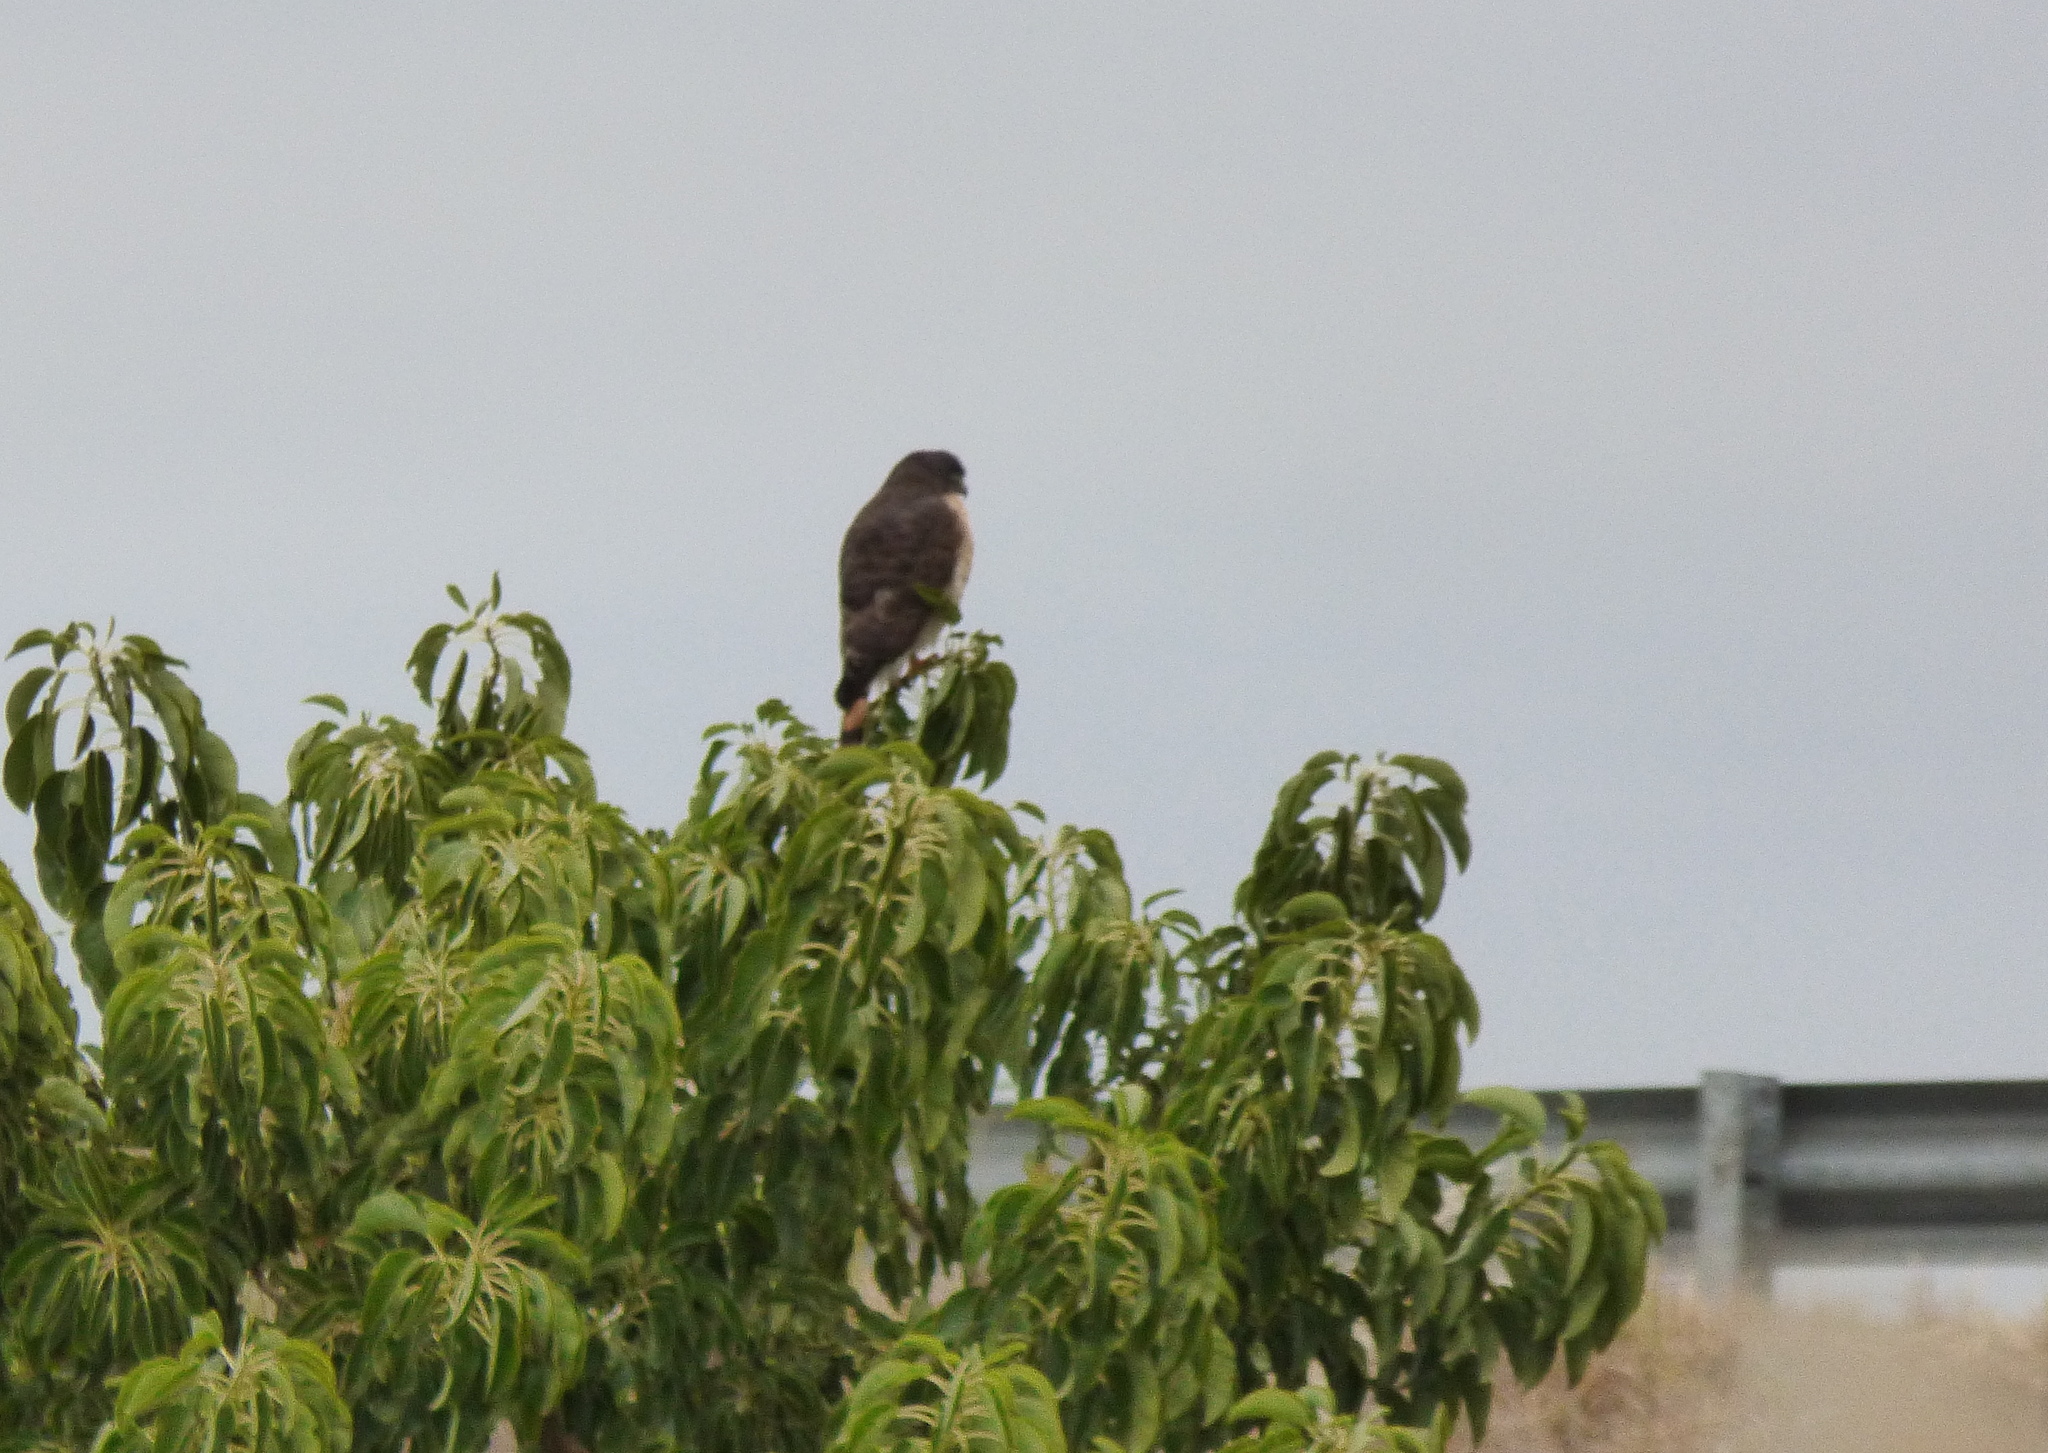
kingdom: Animalia
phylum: Chordata
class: Aves
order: Accipitriformes
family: Accipitridae
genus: Rupornis
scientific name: Rupornis magnirostris
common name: Roadside hawk
